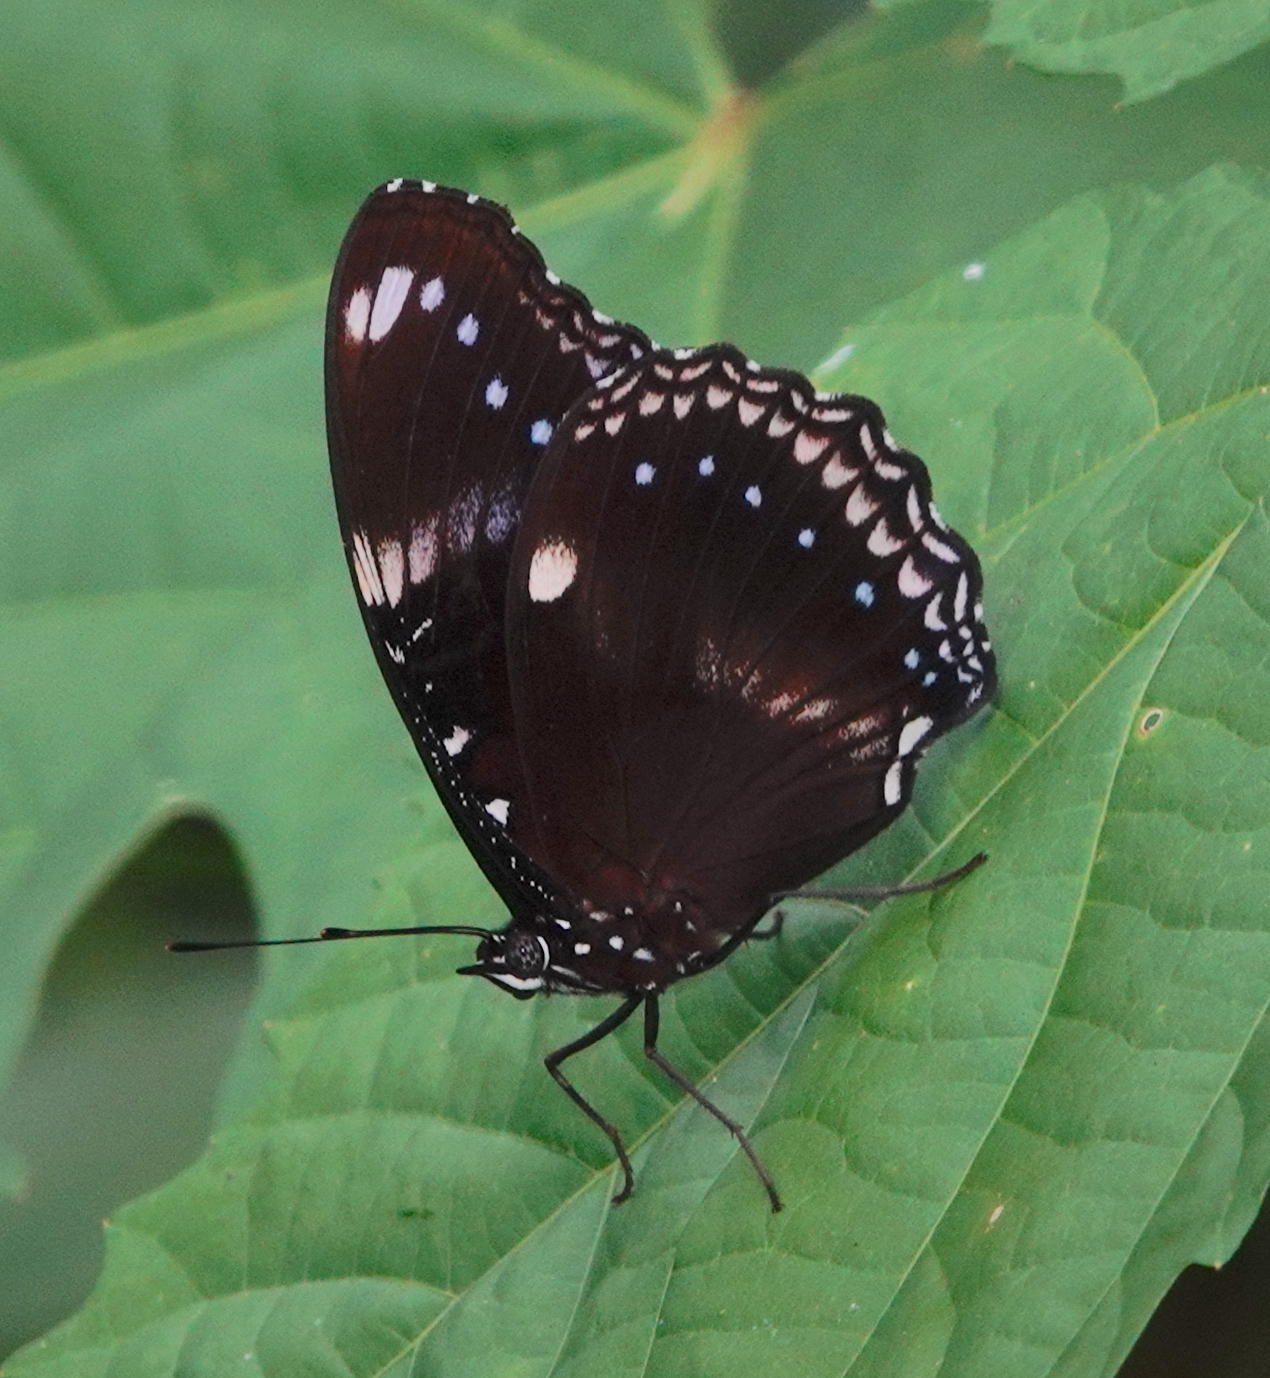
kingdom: Animalia
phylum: Arthropoda
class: Insecta
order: Lepidoptera
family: Nymphalidae
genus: Hypolimnas
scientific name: Hypolimnas bolina
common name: Great eggfly
